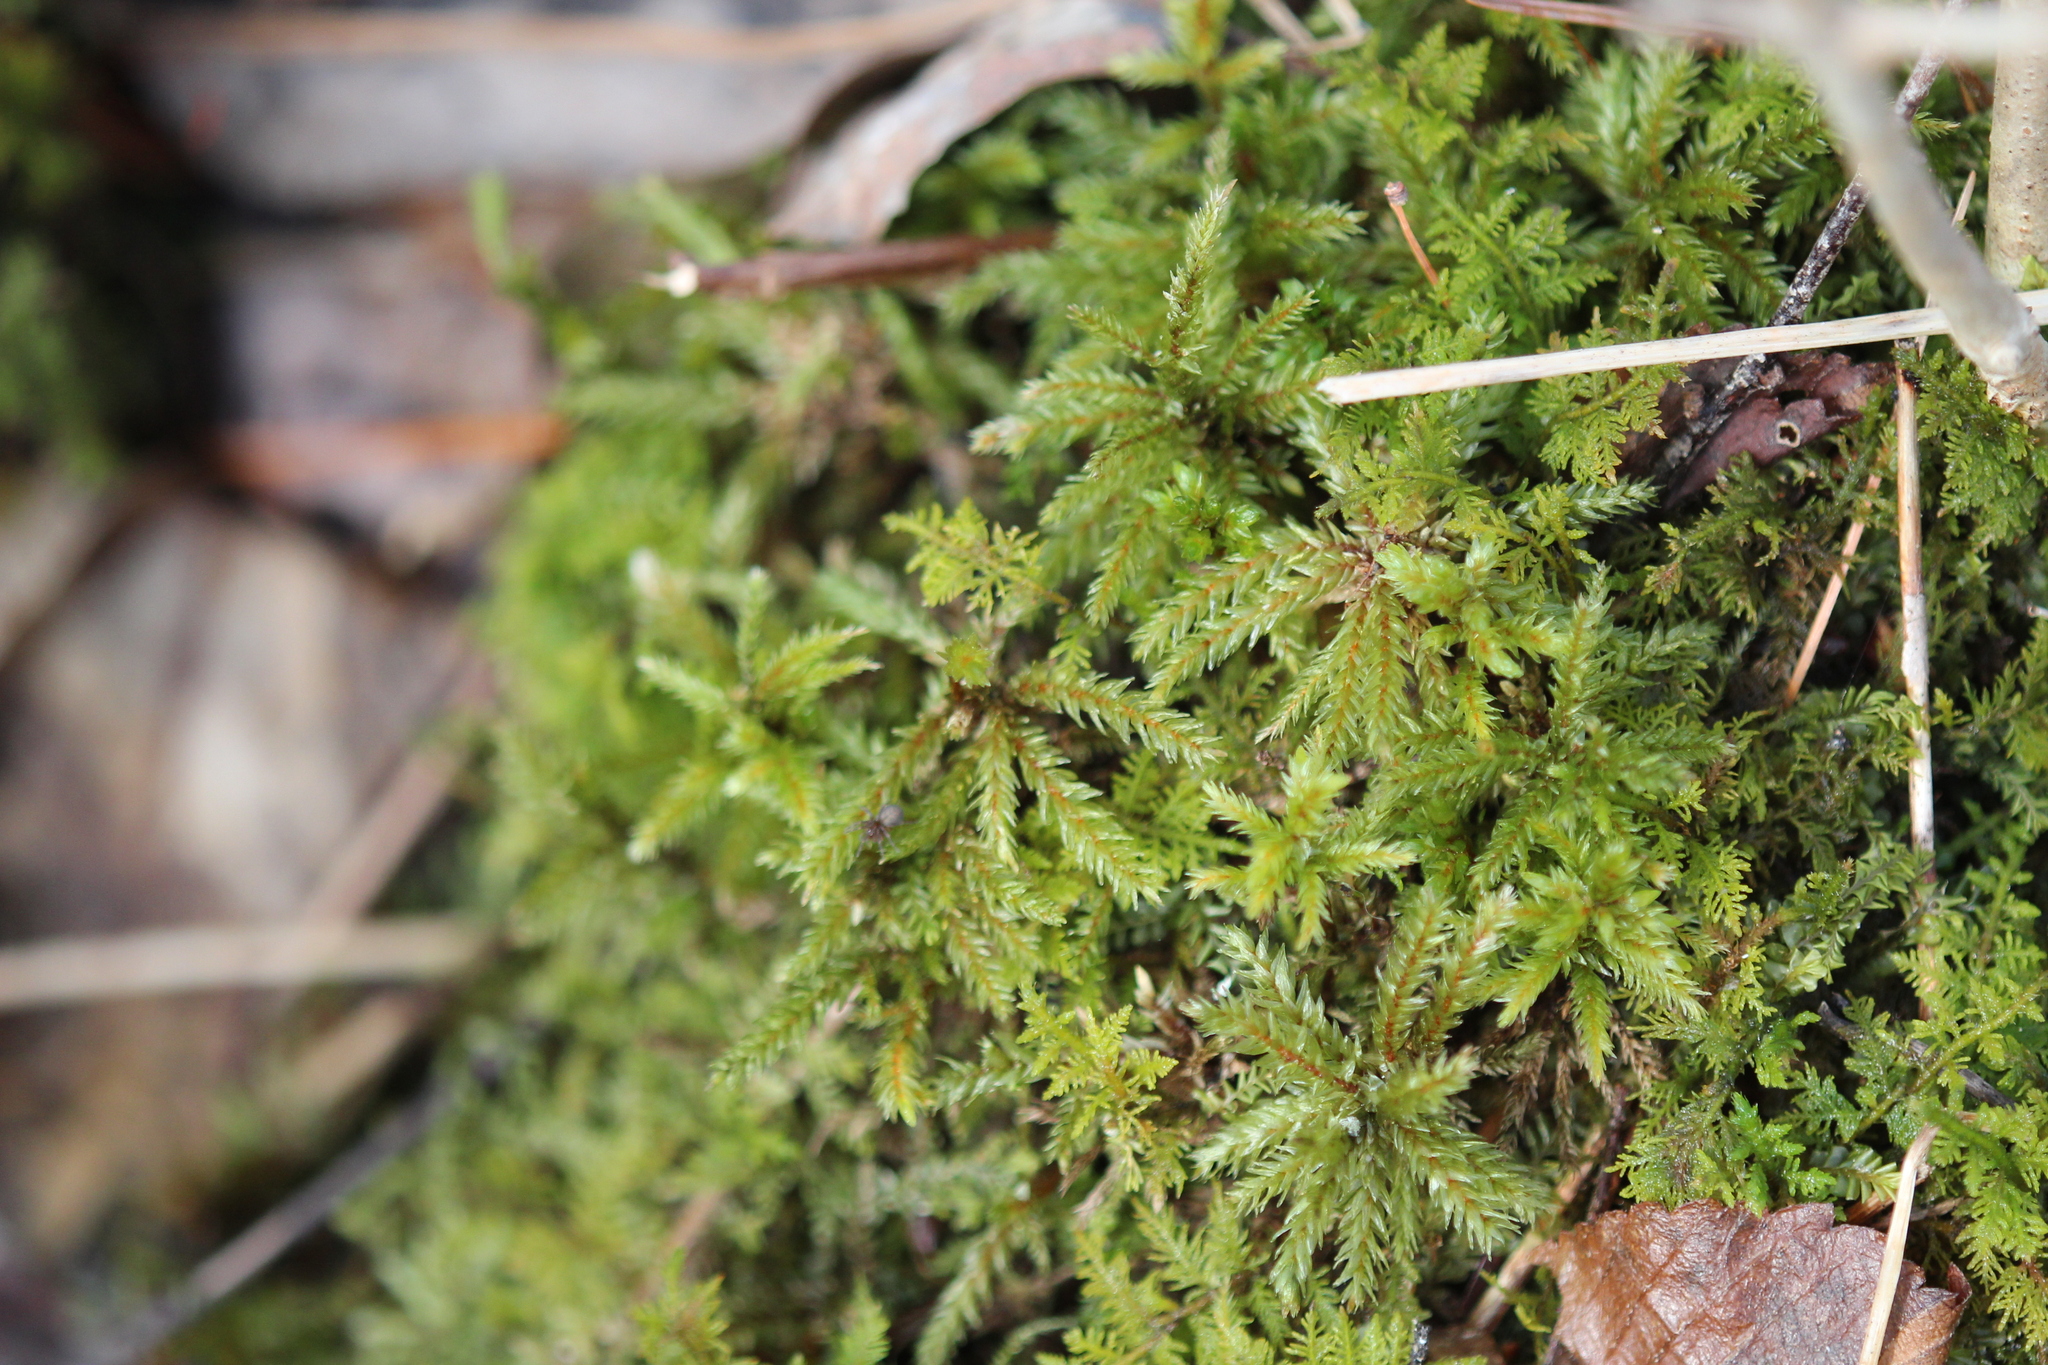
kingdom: Plantae
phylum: Bryophyta
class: Bryopsida
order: Hypnales
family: Climaciaceae
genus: Climacium
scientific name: Climacium dendroides
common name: Northern tree moss
